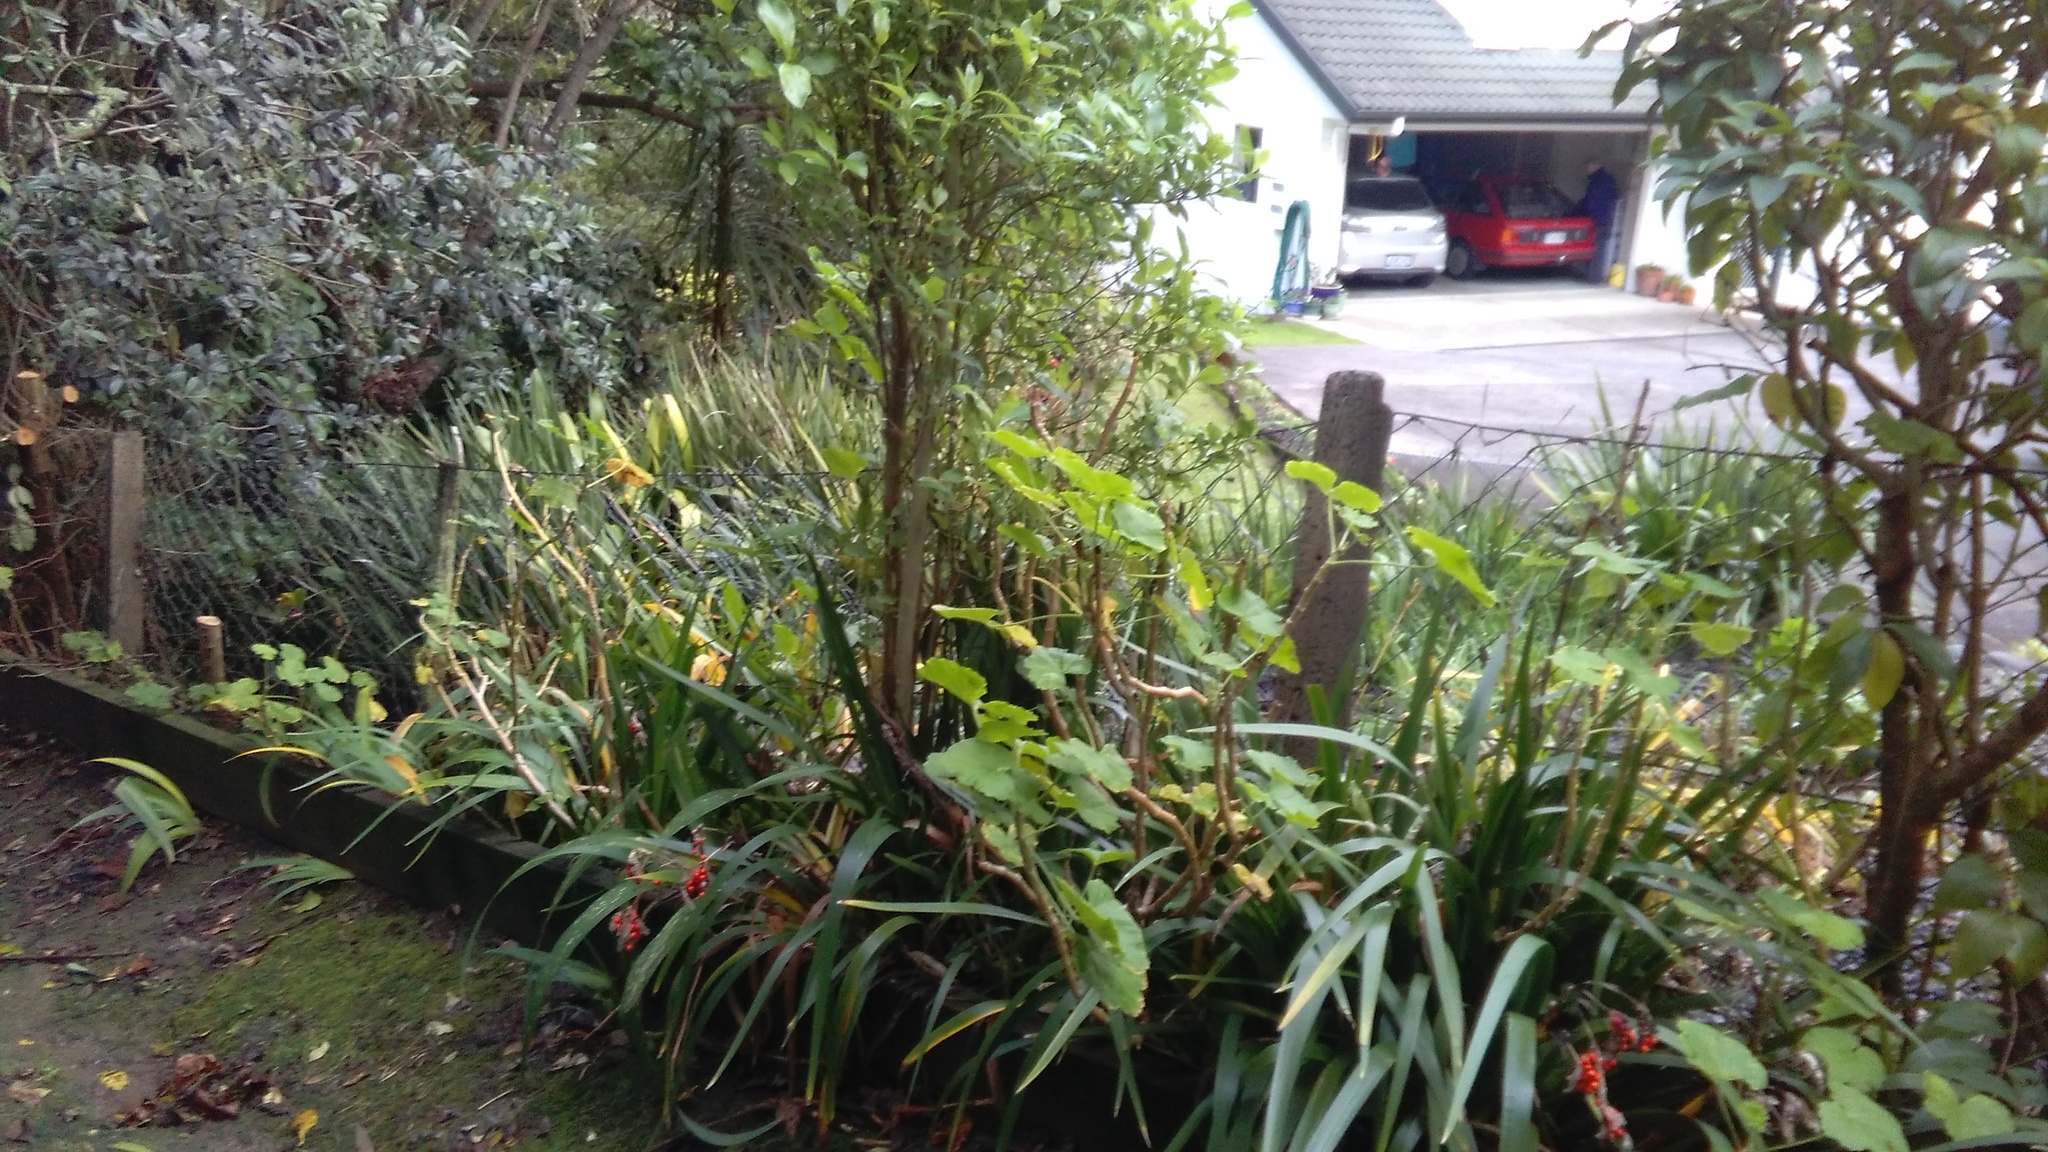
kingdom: Plantae
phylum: Tracheophyta
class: Liliopsida
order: Asparagales
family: Iridaceae
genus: Iris
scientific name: Iris foetidissima
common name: Stinking iris
